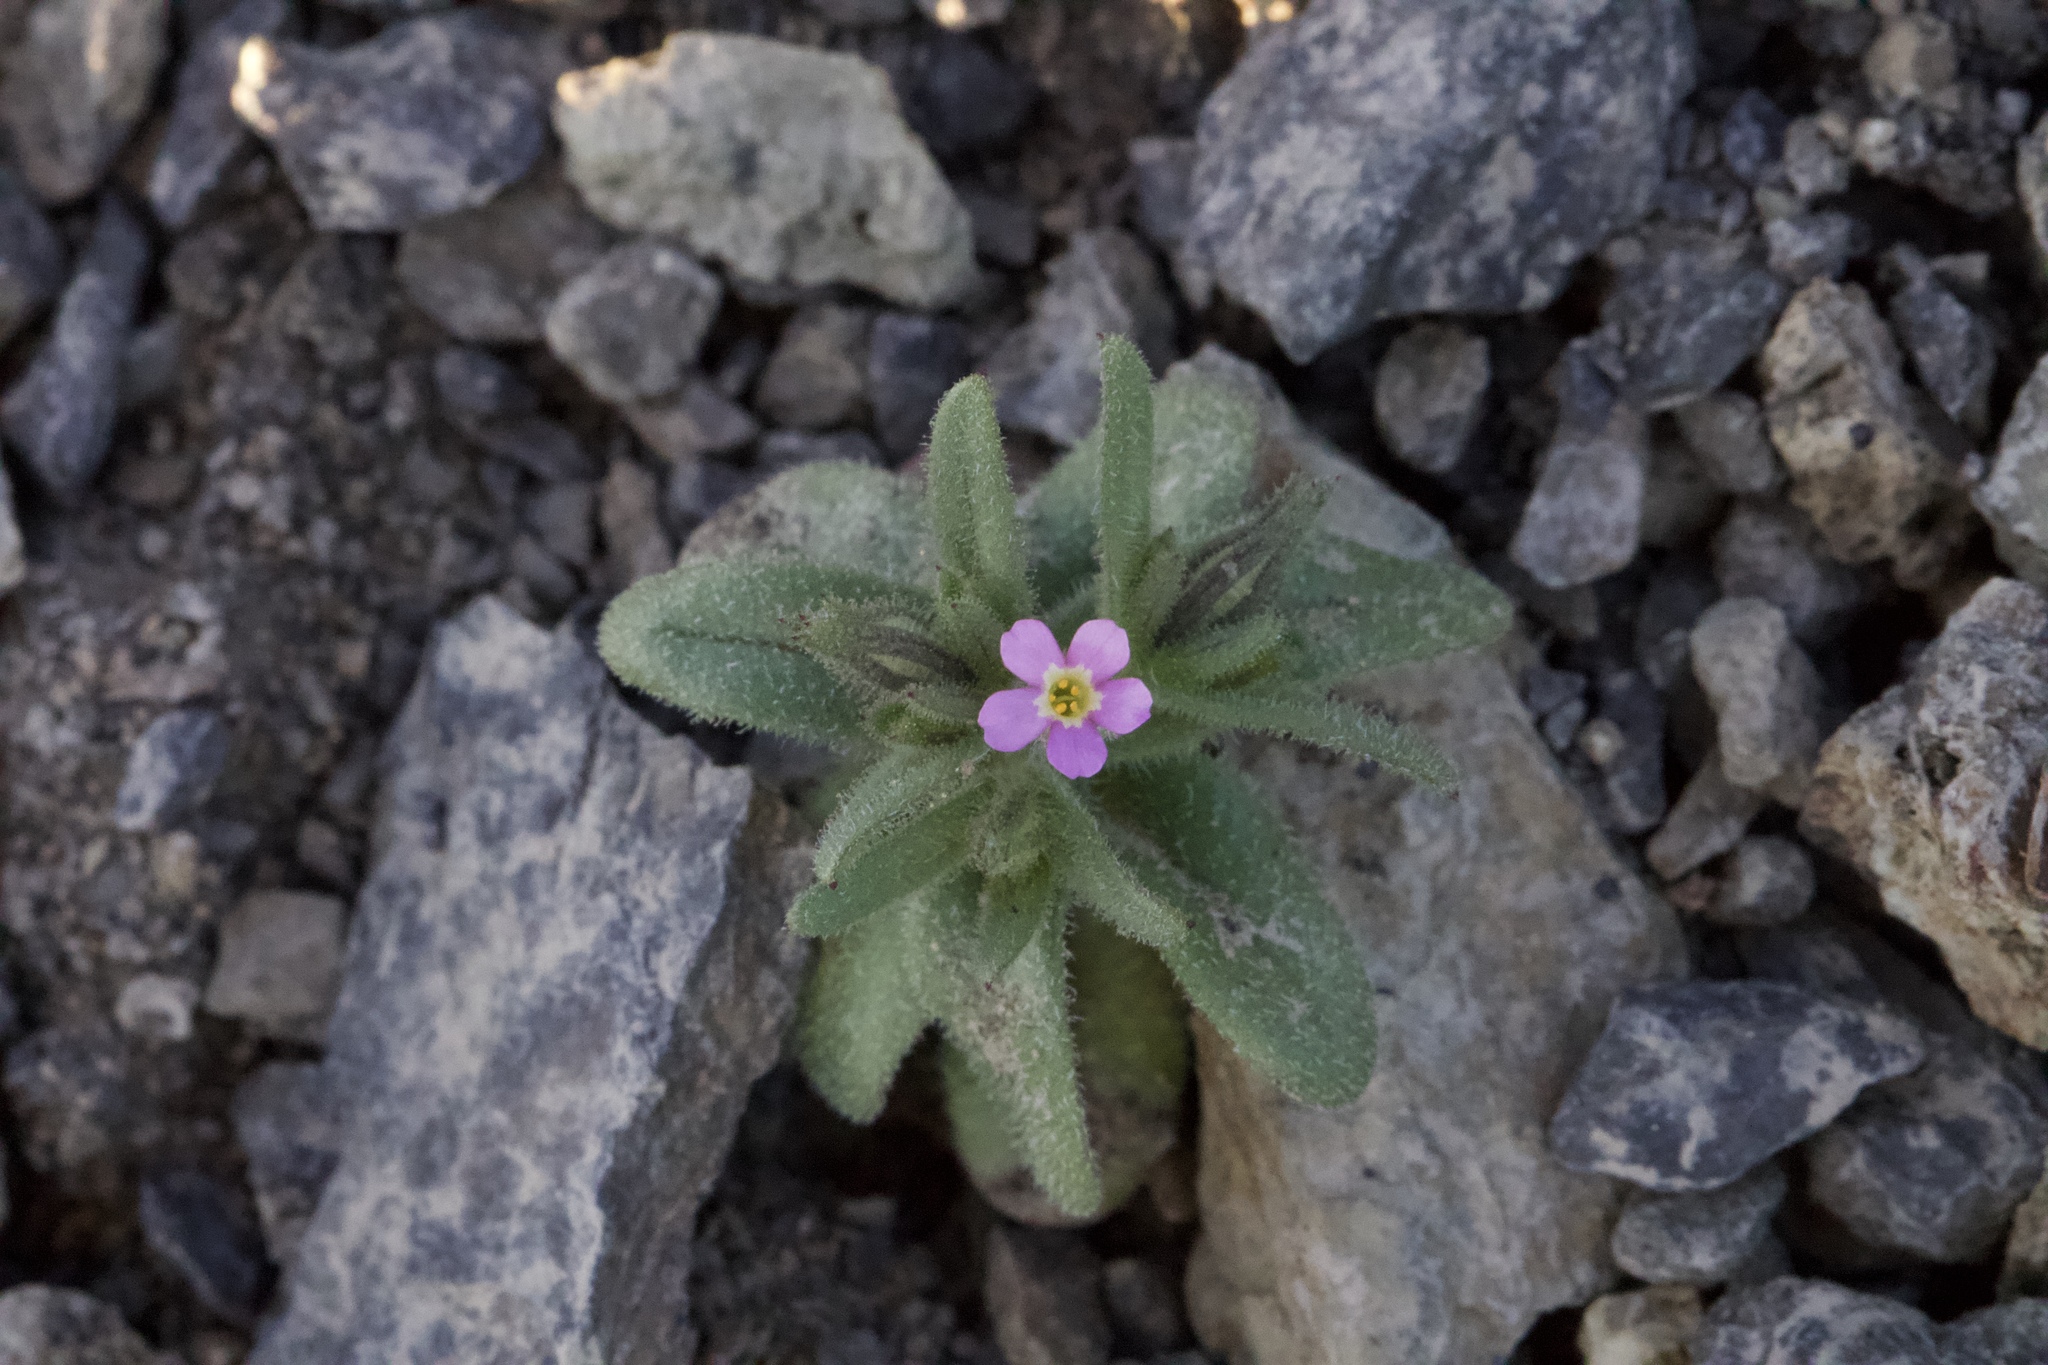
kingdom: Plantae
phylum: Tracheophyta
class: Magnoliopsida
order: Ericales
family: Polemoniaceae
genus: Phlox
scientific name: Phlox gracilis
